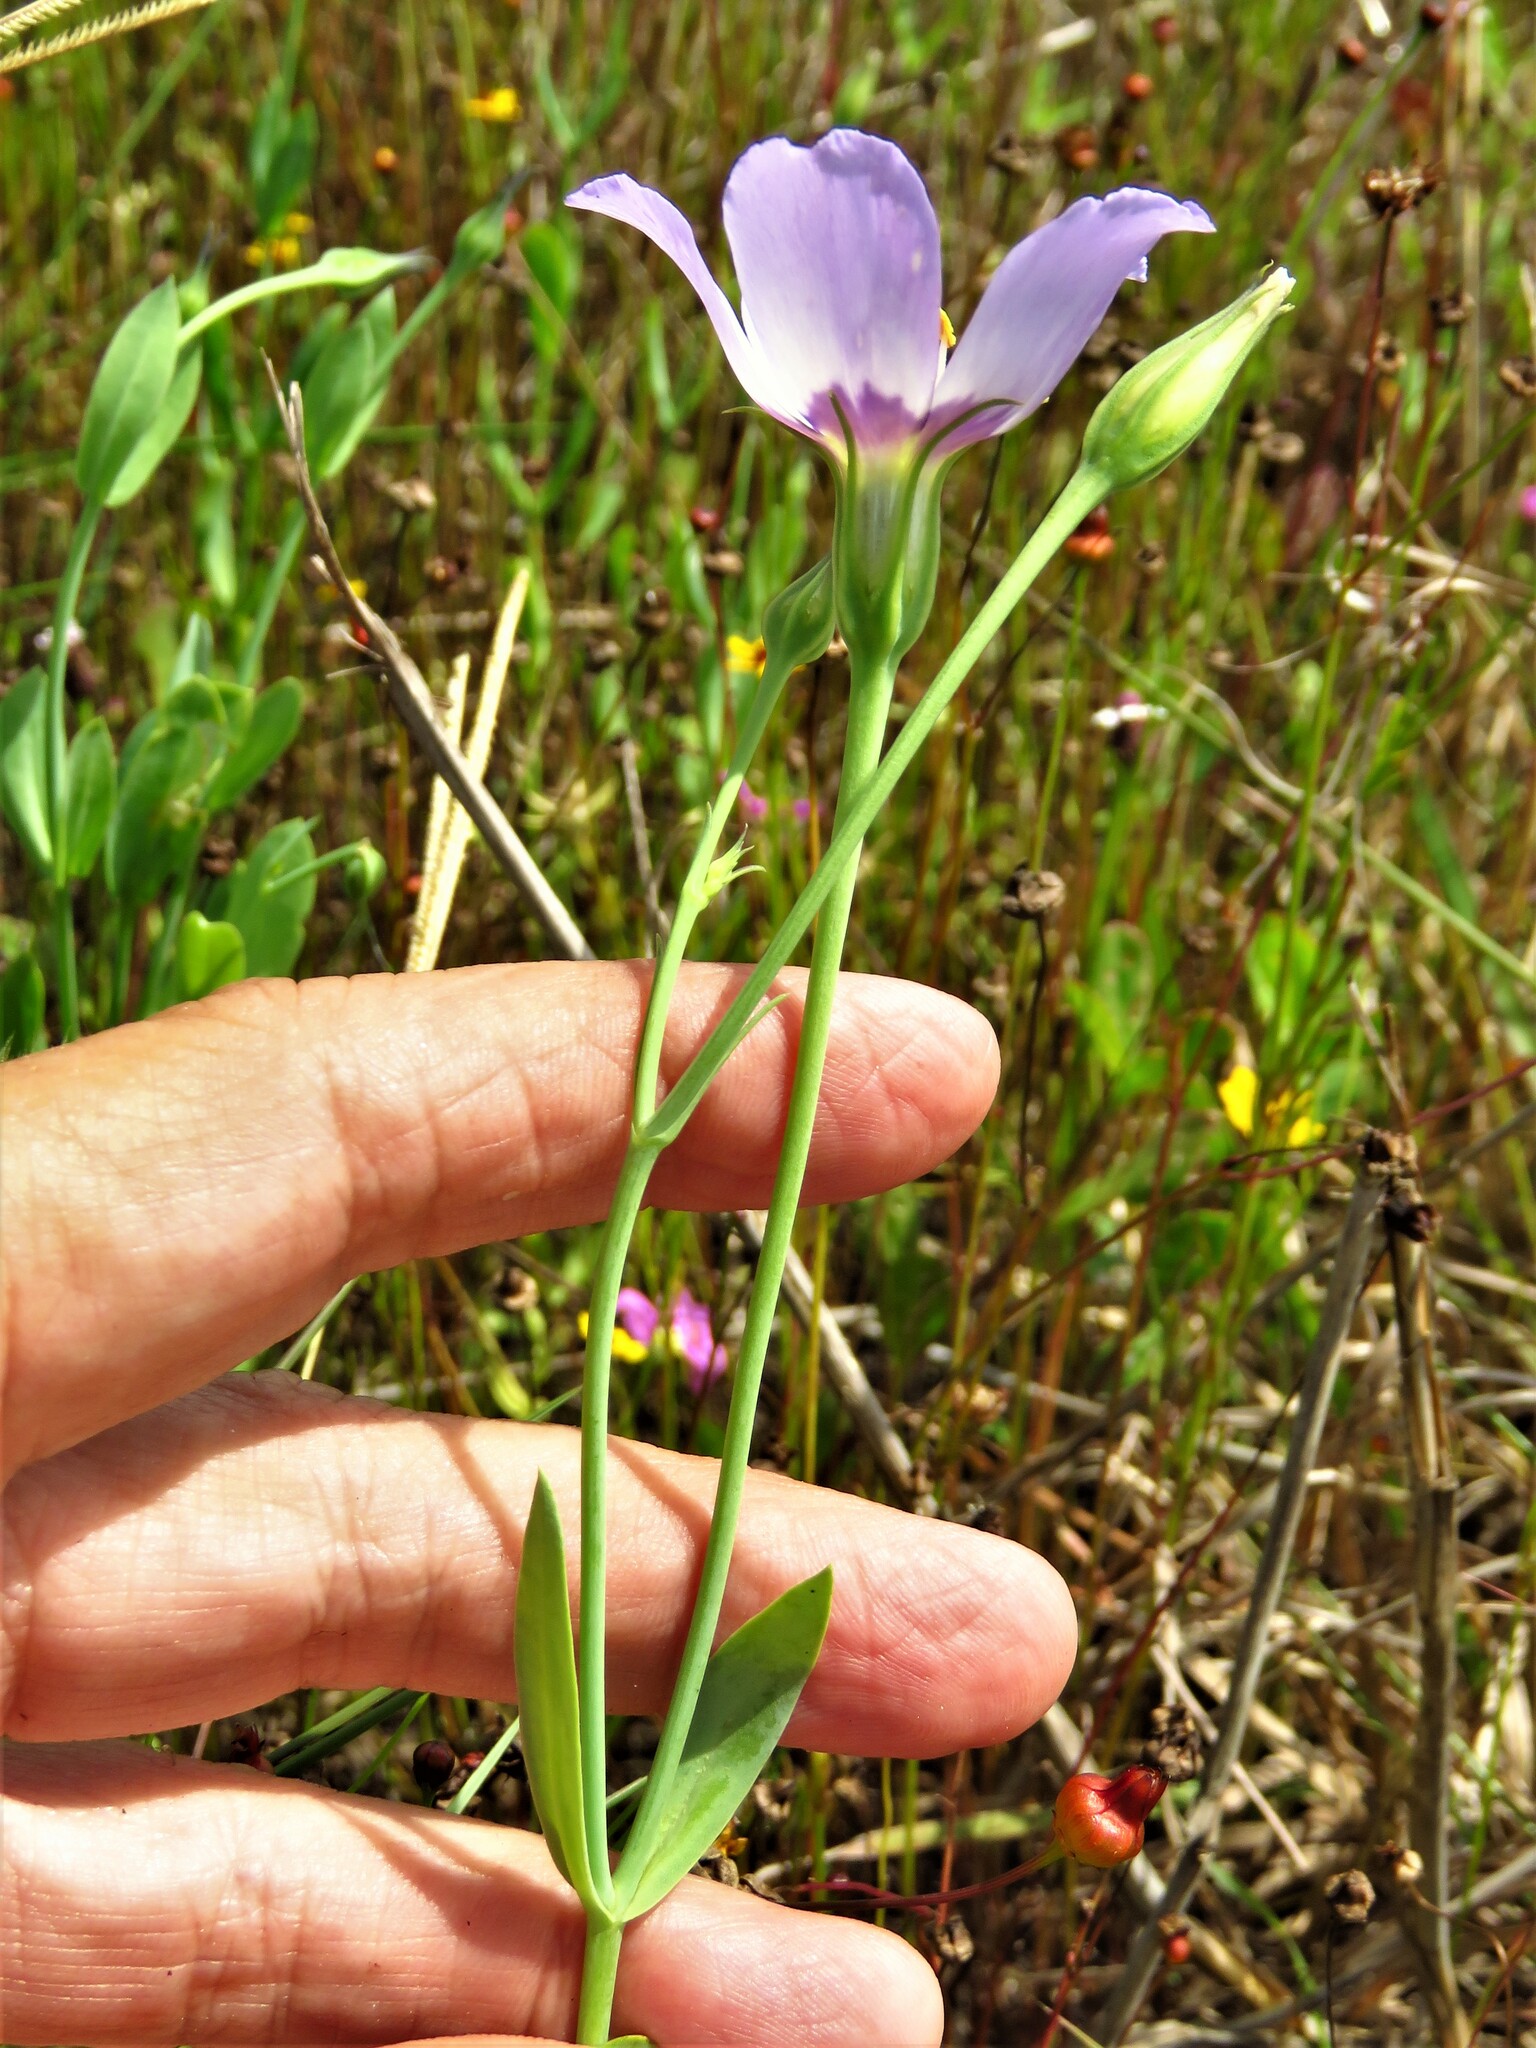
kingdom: Plantae
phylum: Tracheophyta
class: Magnoliopsida
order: Gentianales
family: Gentianaceae
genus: Eustoma
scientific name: Eustoma exaltatum
